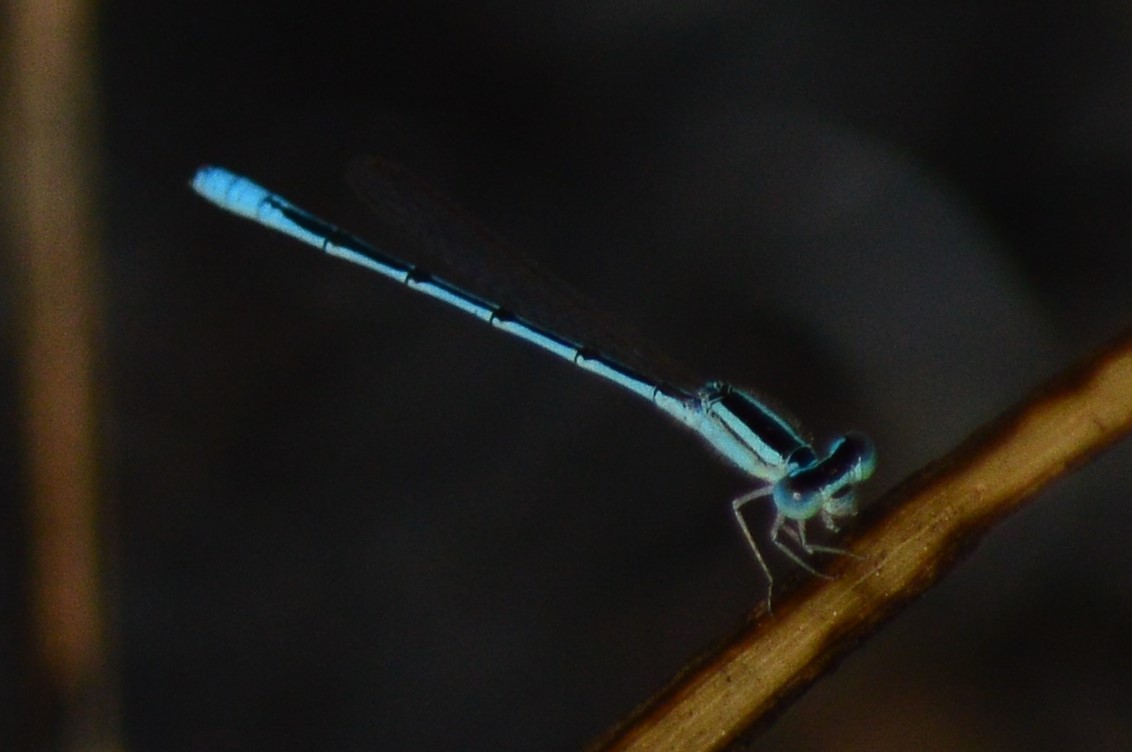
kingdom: Animalia
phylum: Arthropoda
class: Insecta
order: Odonata
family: Coenagrionidae
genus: Amphiallagma
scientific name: Amphiallagma parvum
